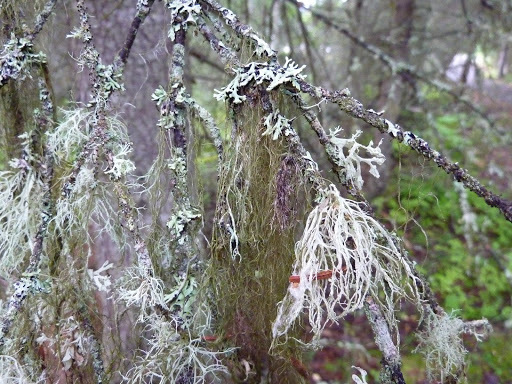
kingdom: Fungi
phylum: Ascomycota
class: Lecanoromycetes
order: Lecanorales
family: Parmeliaceae
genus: Hypogymnia
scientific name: Hypogymnia physodes
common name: Dark crottle
